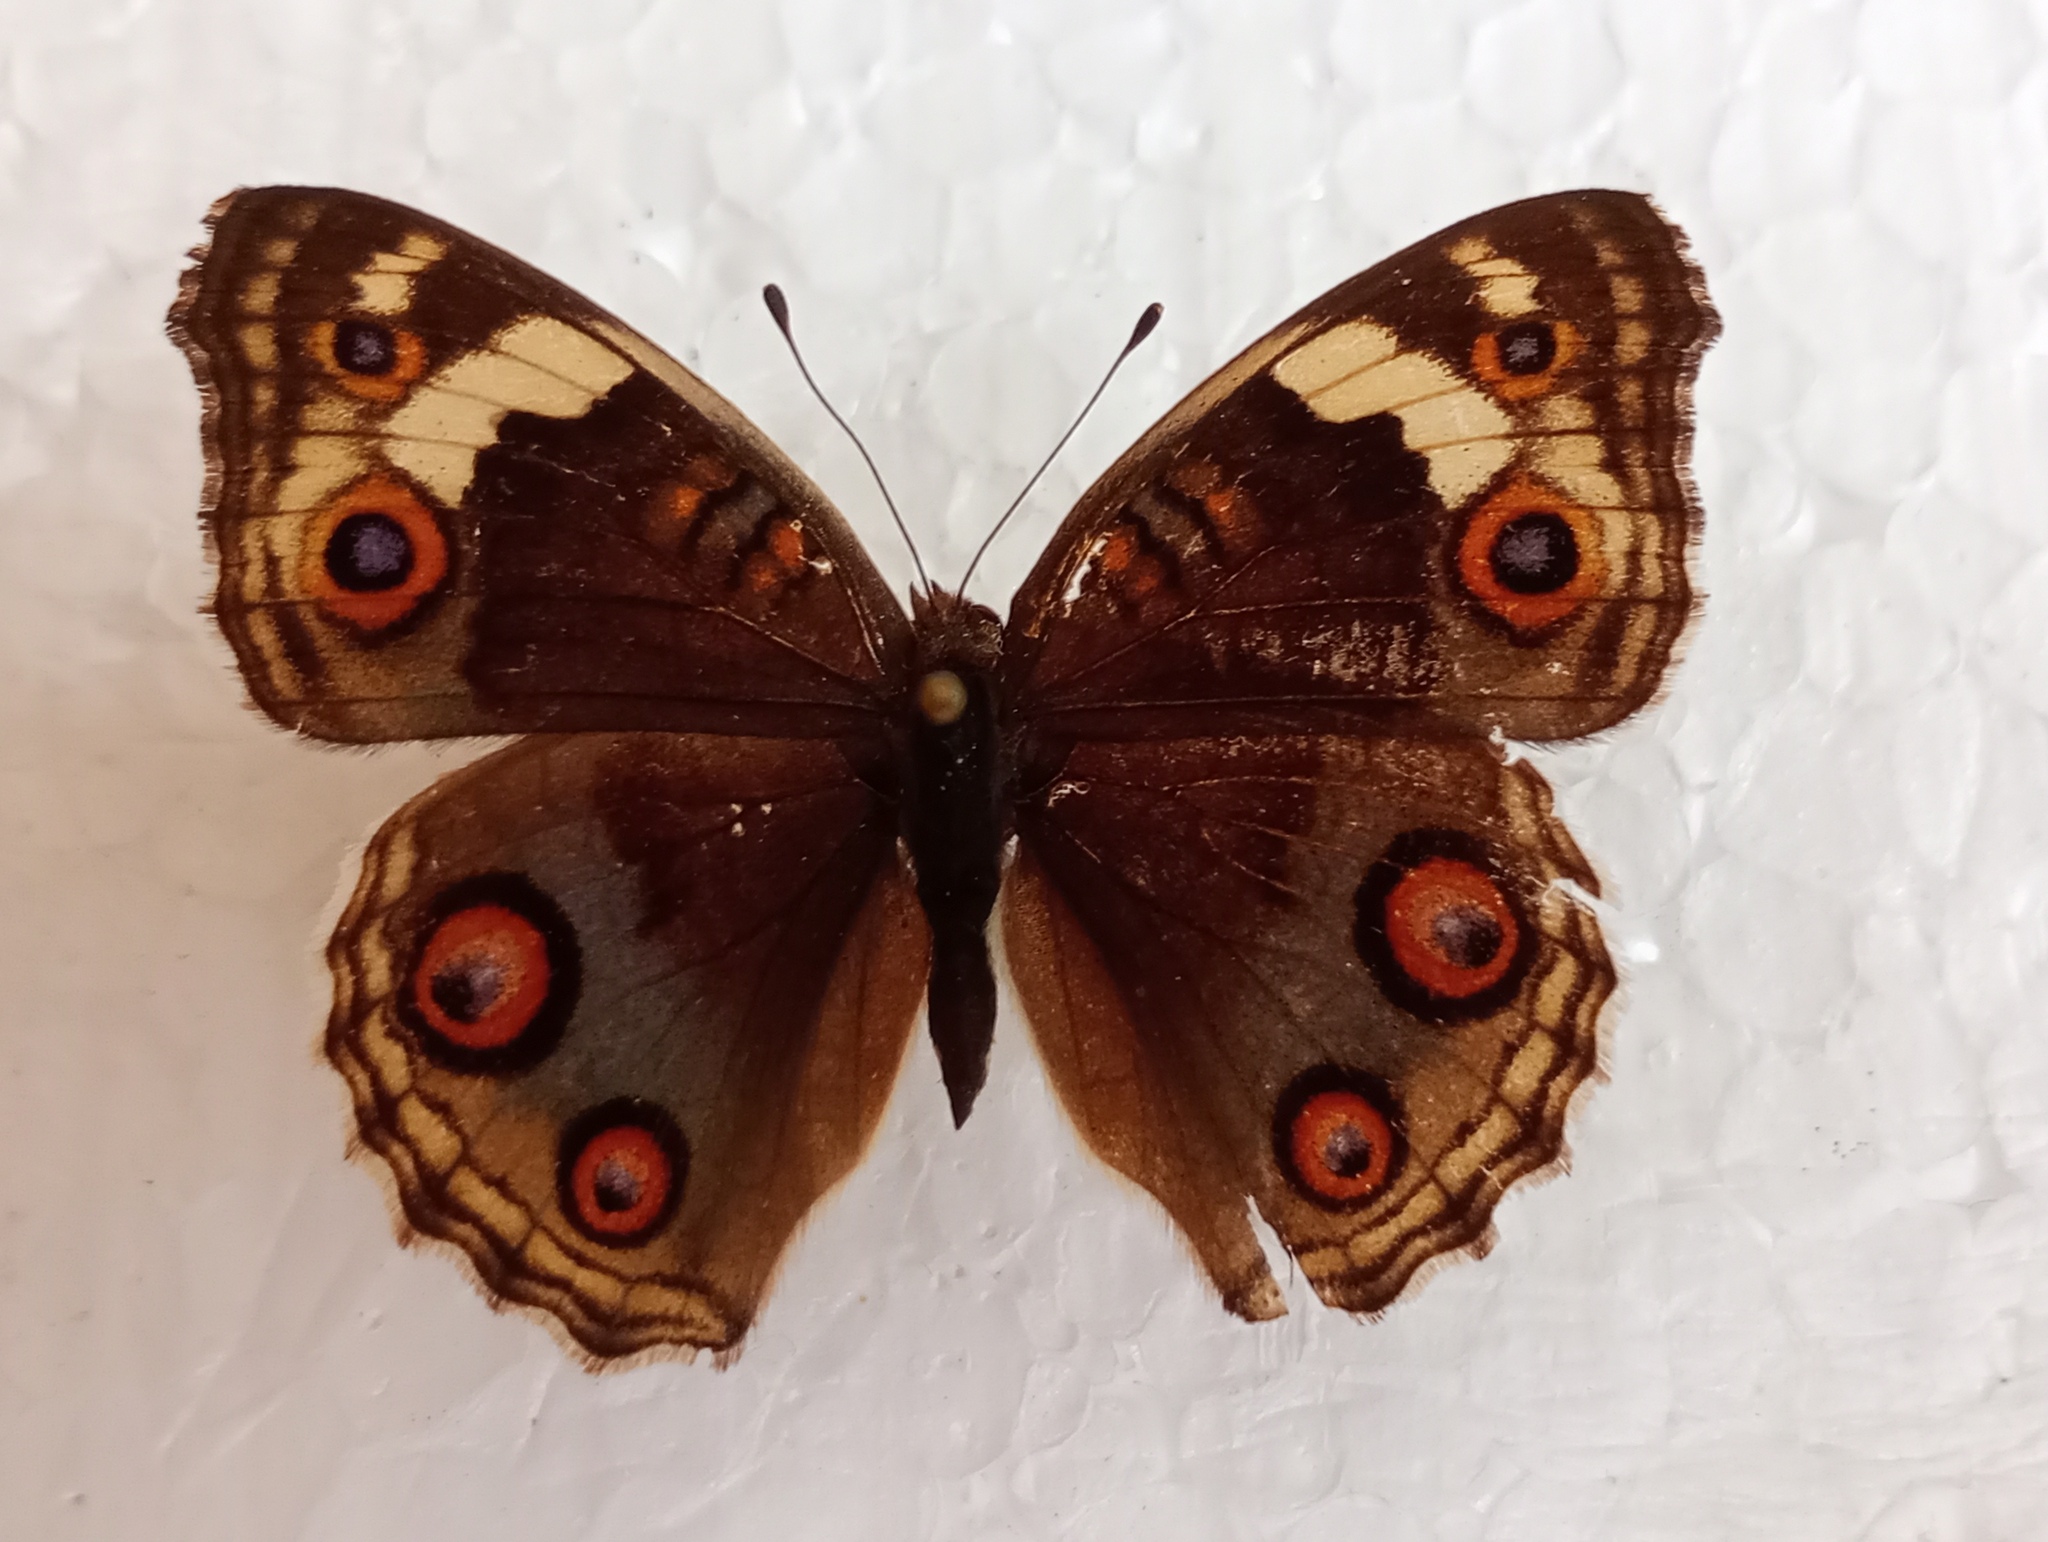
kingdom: Animalia
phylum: Arthropoda
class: Insecta
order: Lepidoptera
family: Nymphalidae
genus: Junonia
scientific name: Junonia orithya
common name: Blue pansy
